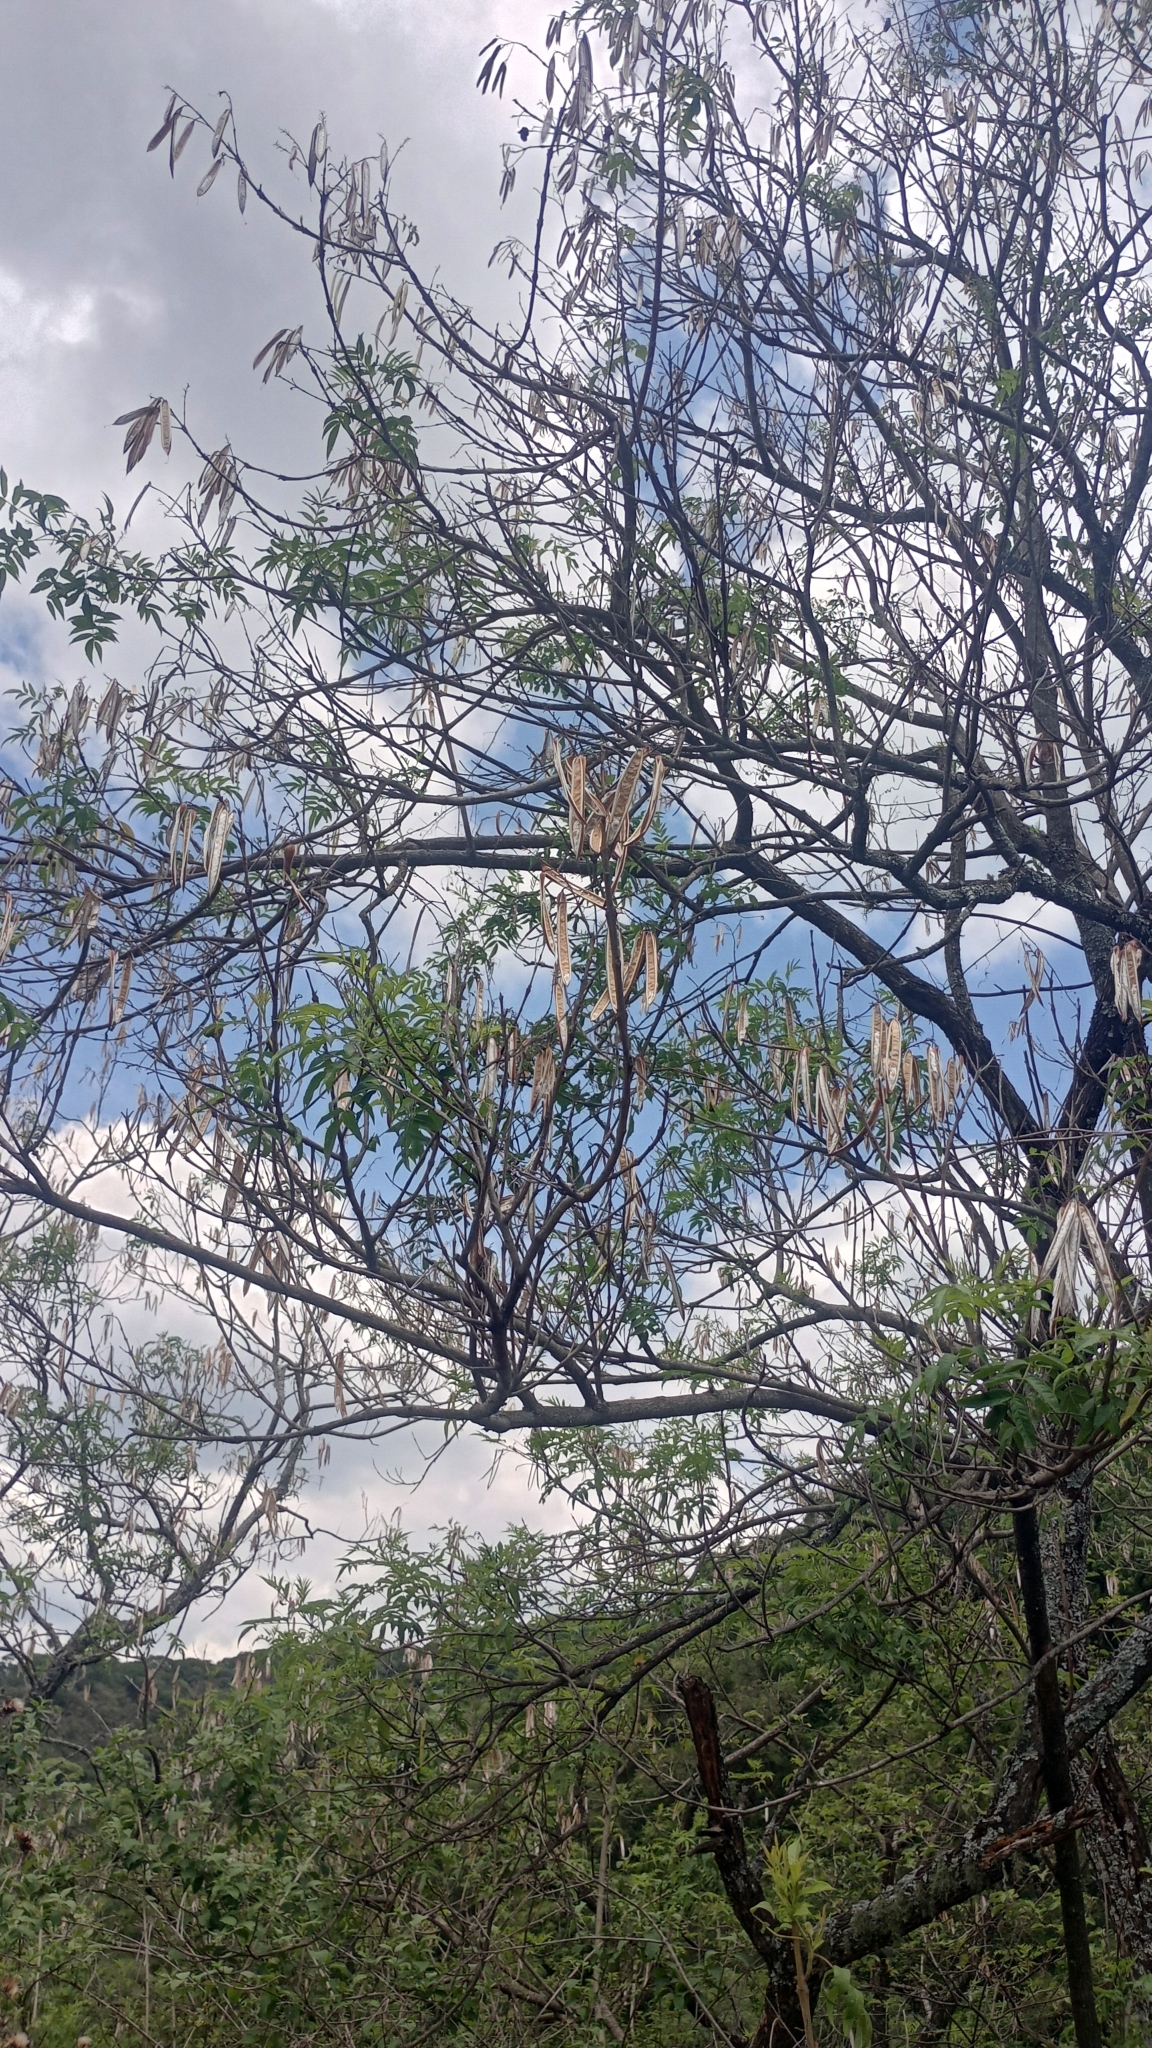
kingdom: Plantae
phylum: Tracheophyta
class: Magnoliopsida
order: Lamiales
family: Bignoniaceae
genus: Tecoma
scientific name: Tecoma stans
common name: Yellow trumpetbush
